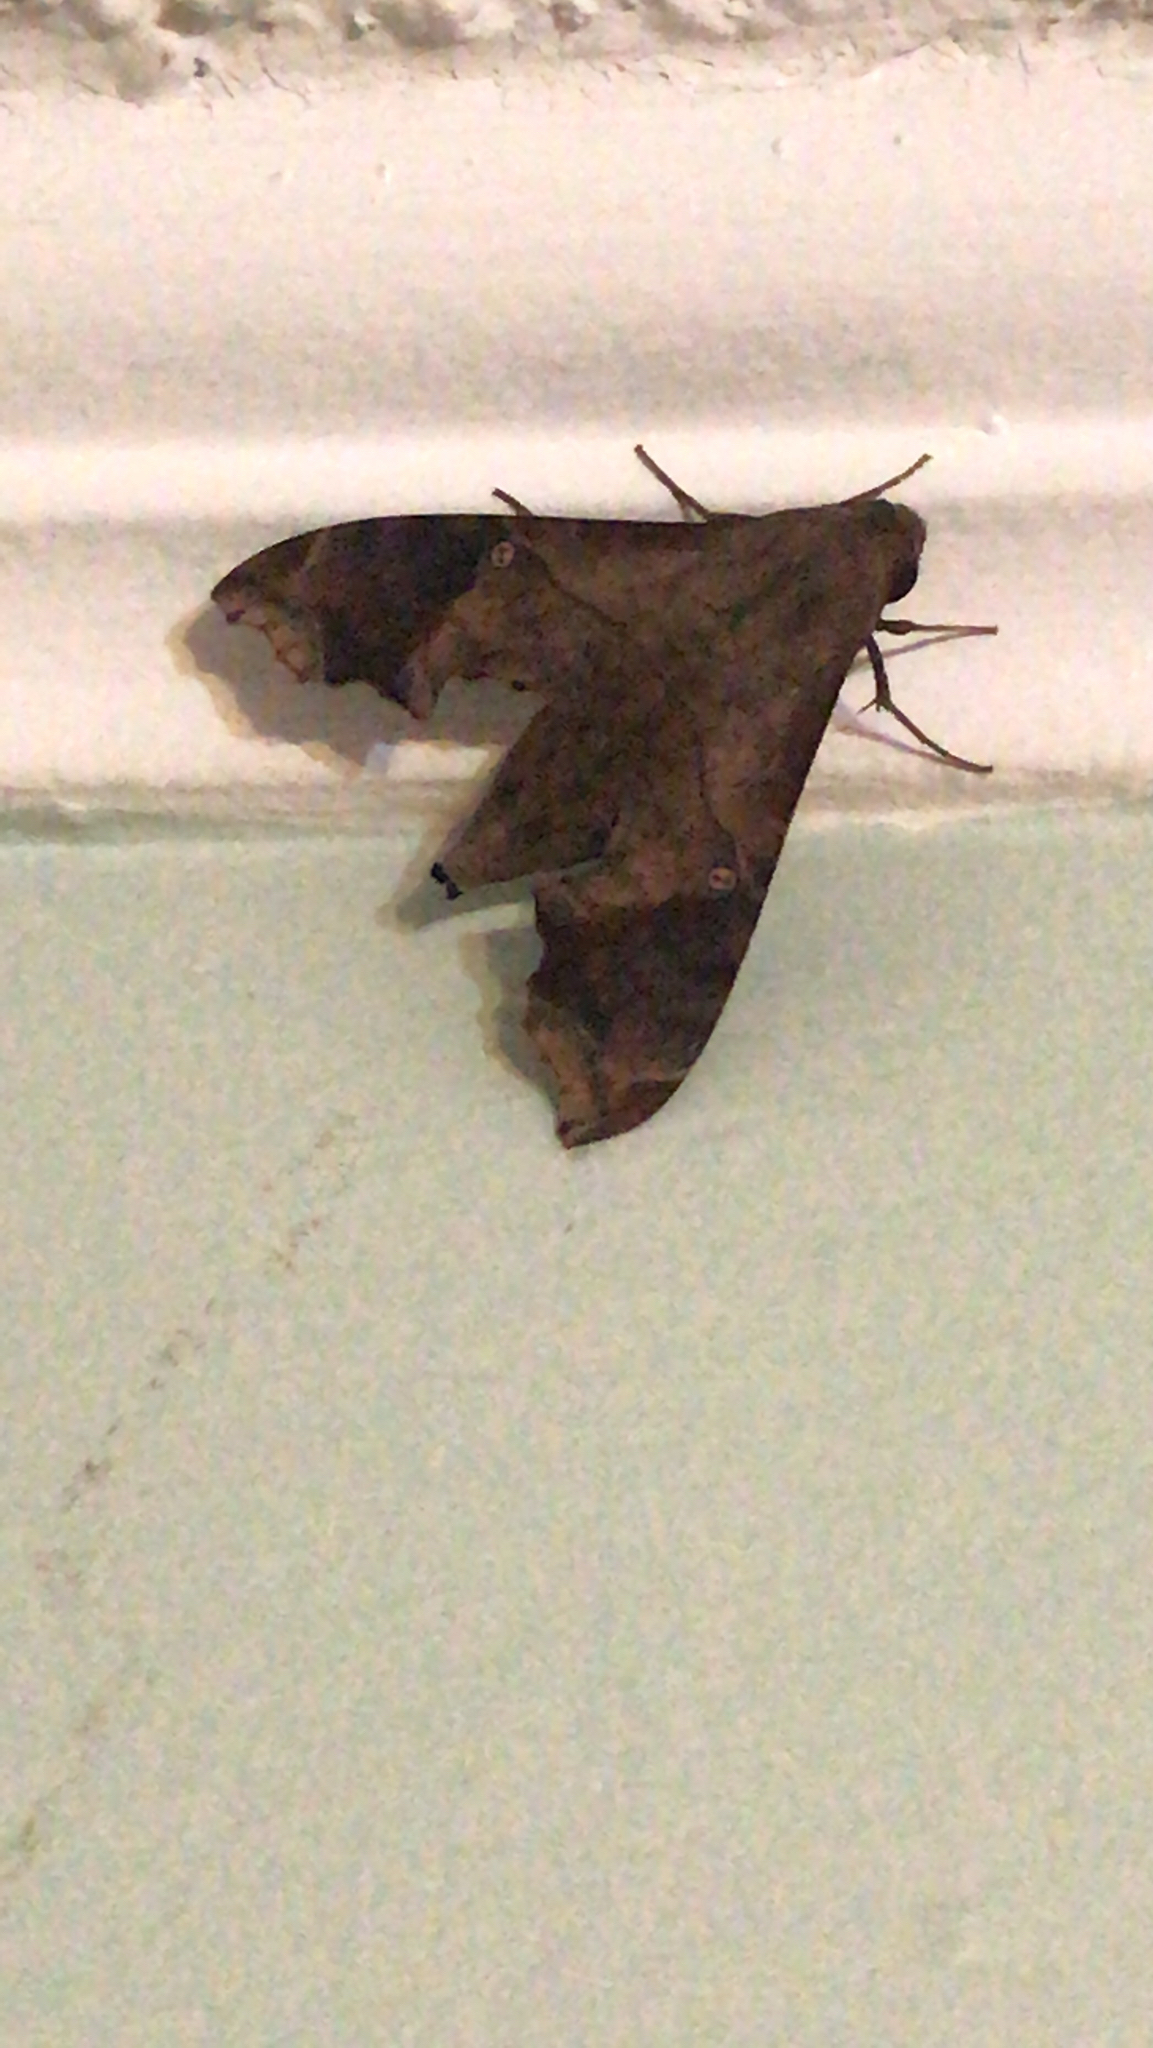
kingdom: Animalia
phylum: Arthropoda
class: Insecta
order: Lepidoptera
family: Sphingidae
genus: Enyo
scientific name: Enyo lugubris
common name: Mournful sphinx
